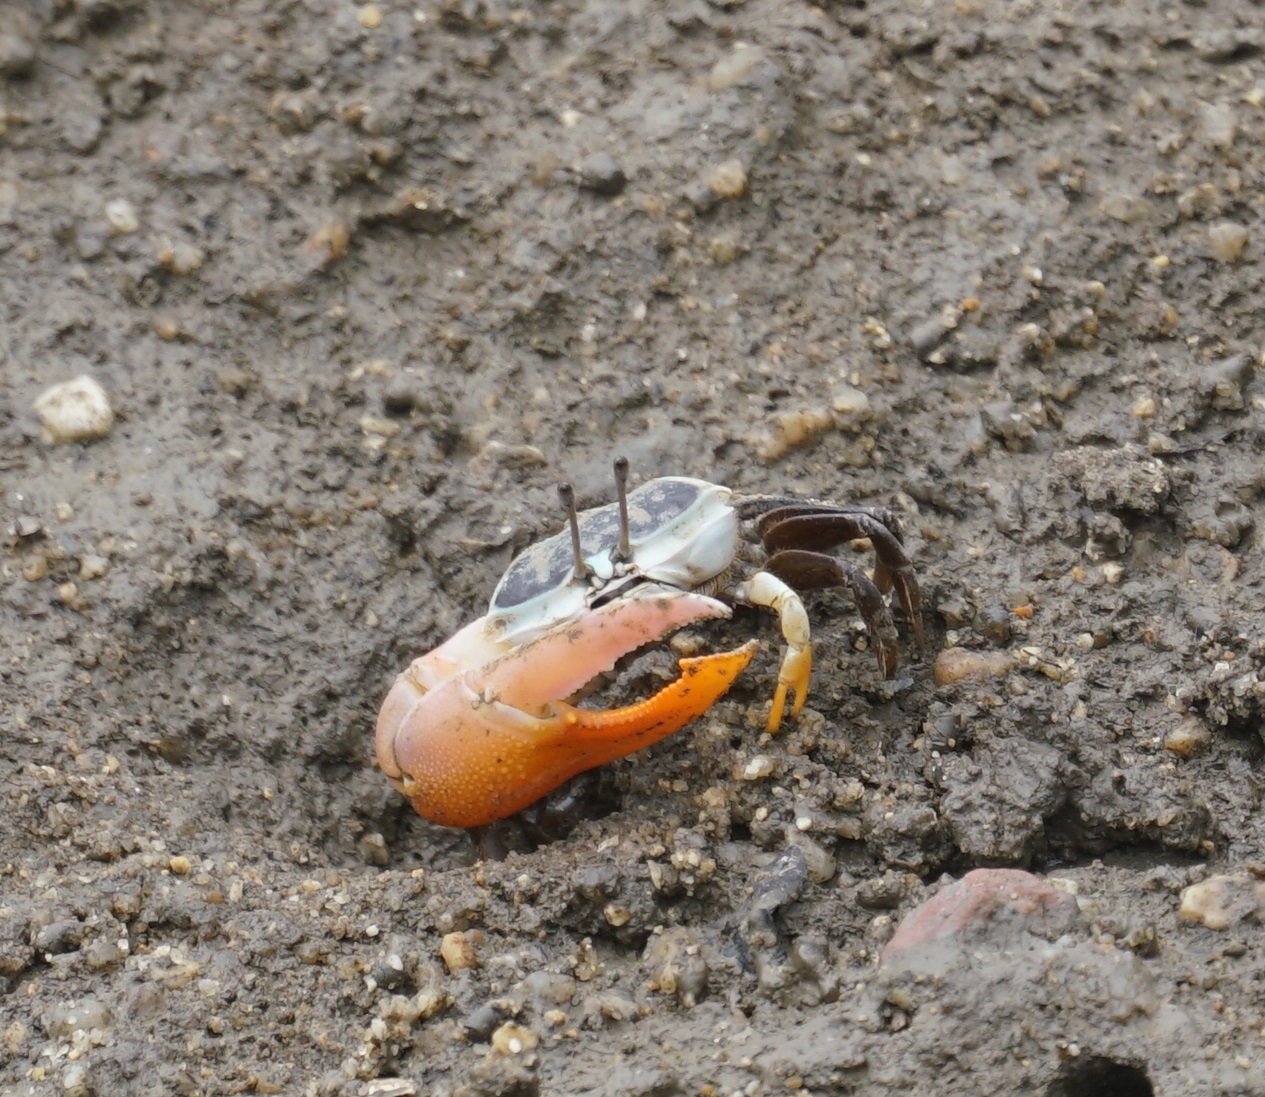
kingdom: Animalia
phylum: Arthropoda
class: Malacostraca
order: Decapoda
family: Ocypodidae
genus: Gelasimus
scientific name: Gelasimus vomeris
